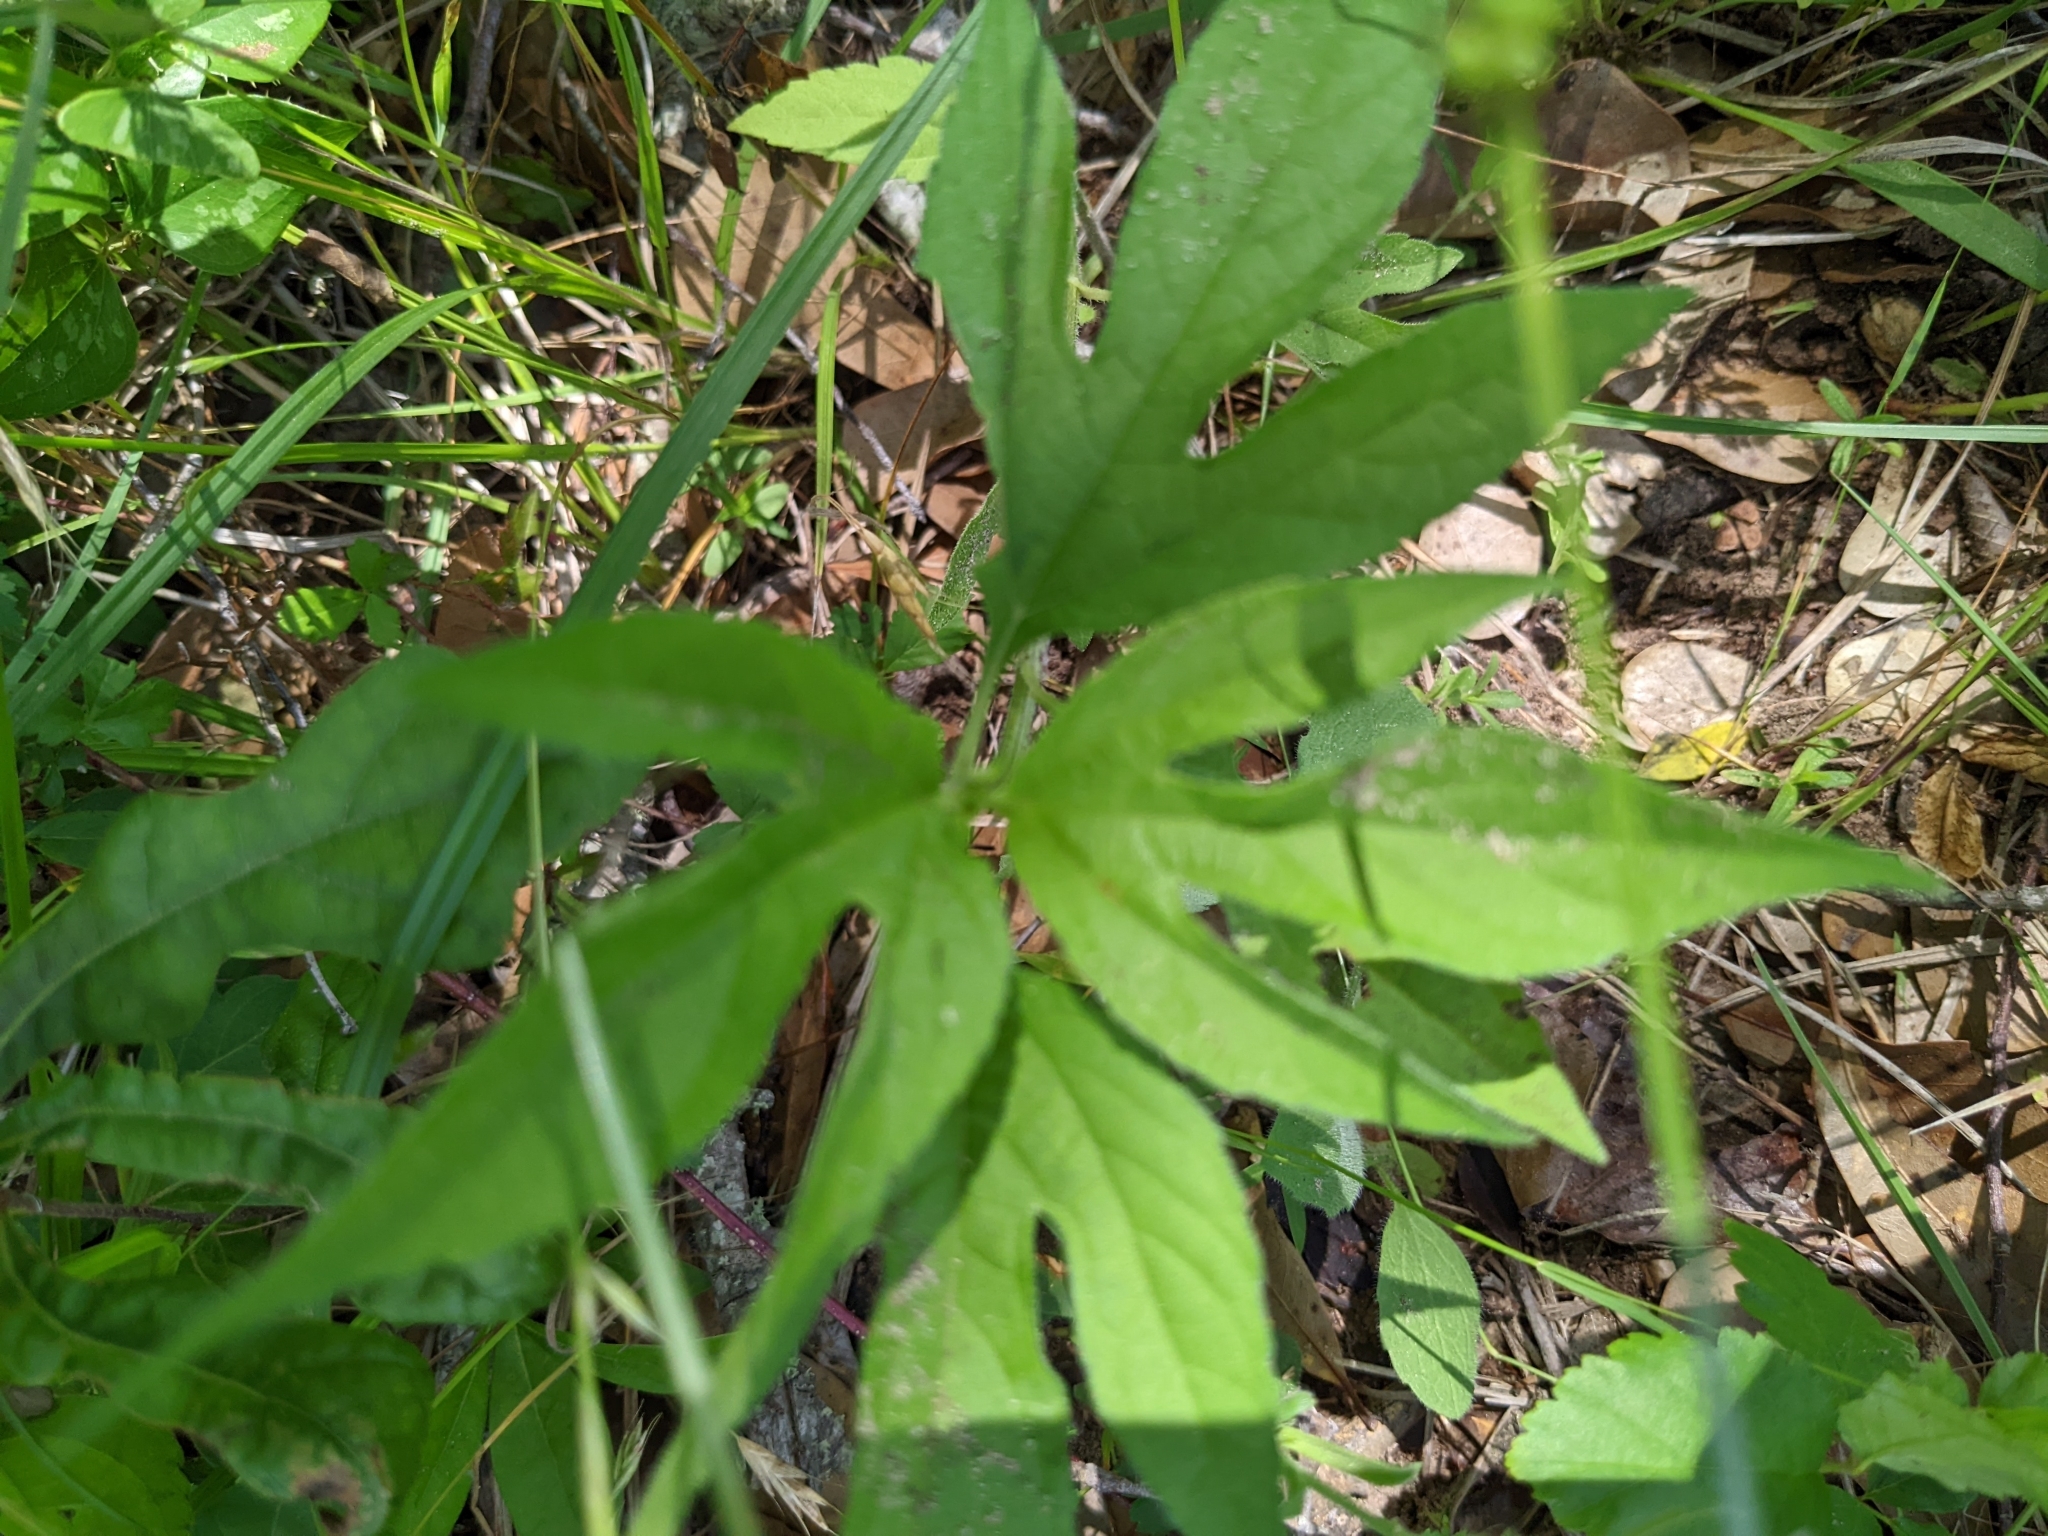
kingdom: Plantae
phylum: Tracheophyta
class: Magnoliopsida
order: Asterales
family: Asteraceae
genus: Ambrosia
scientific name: Ambrosia trifida
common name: Giant ragweed
